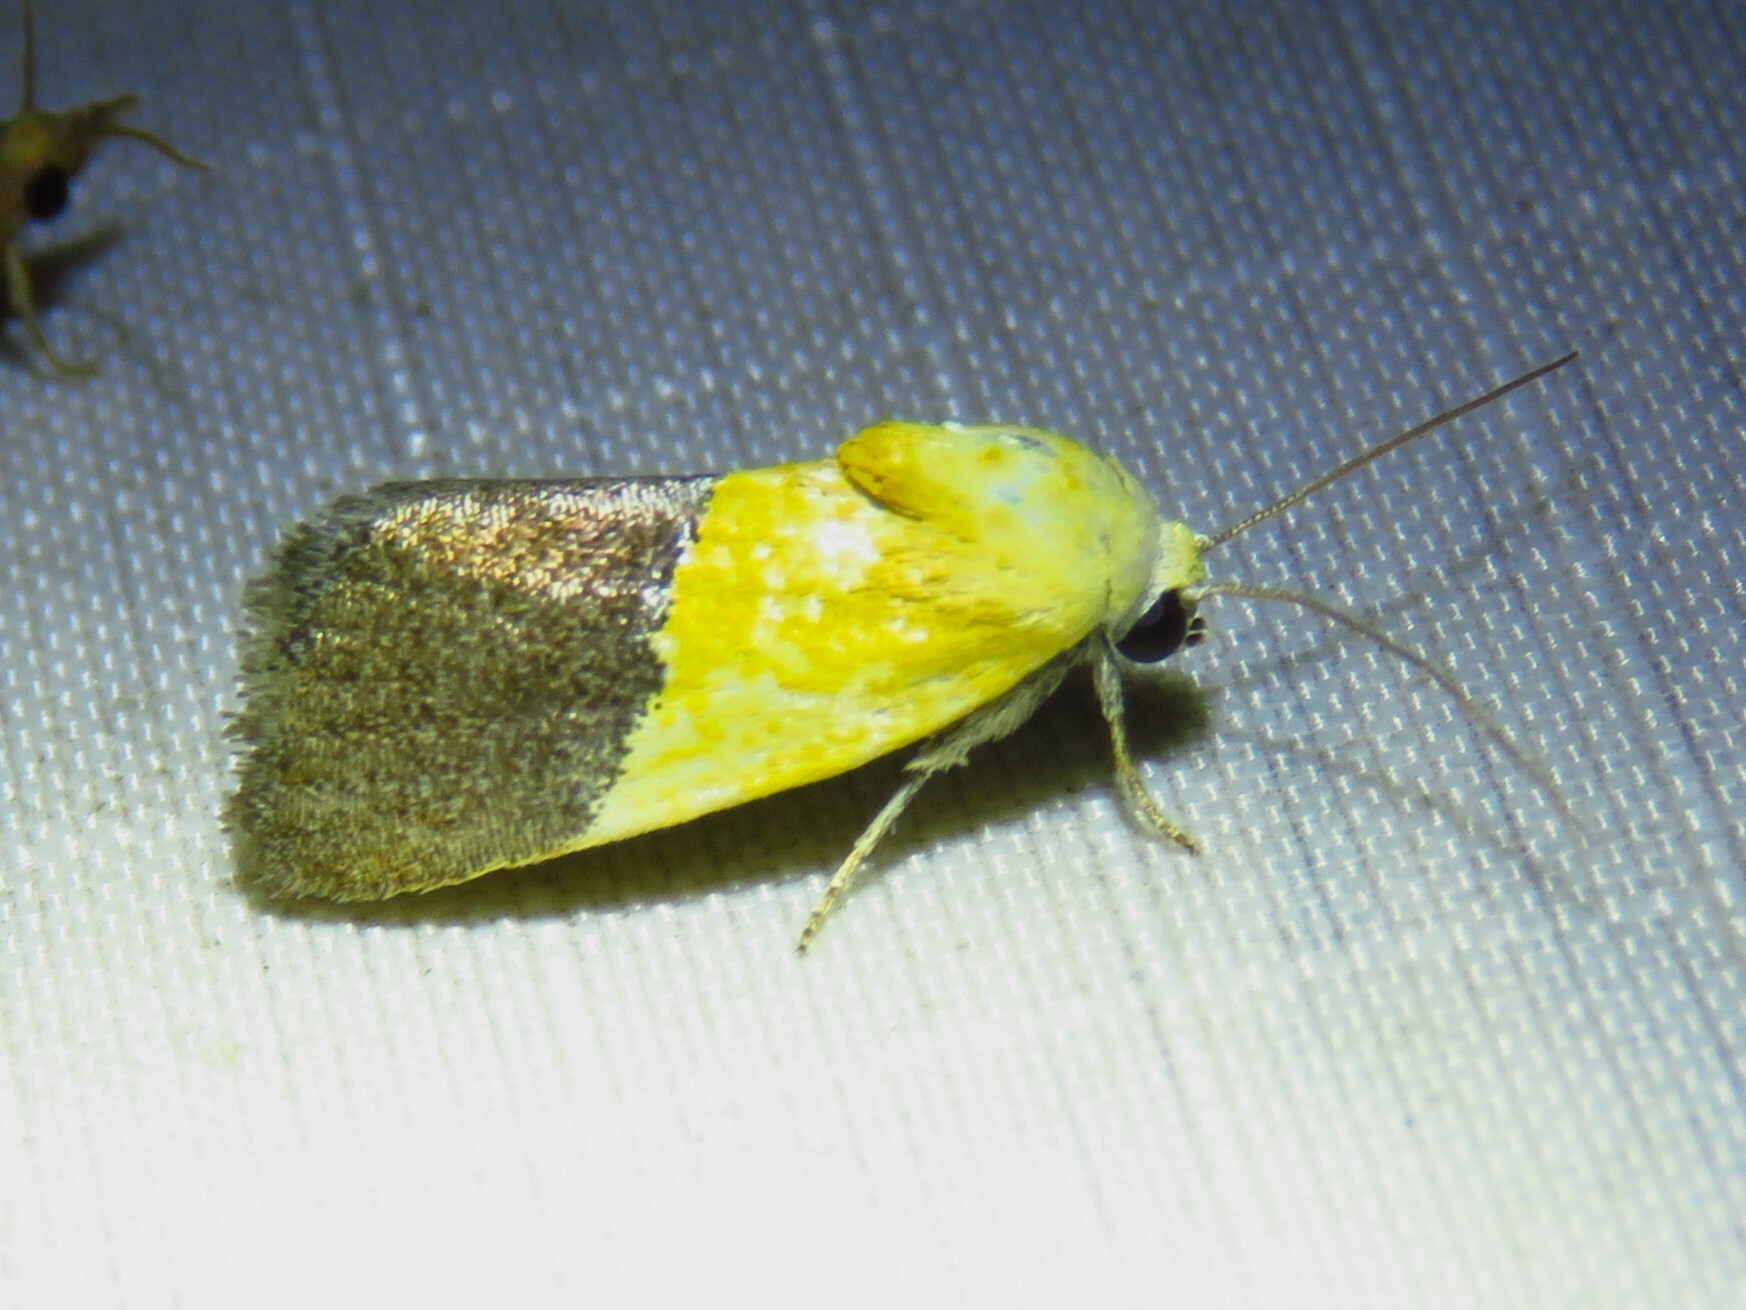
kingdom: Animalia
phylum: Arthropoda
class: Insecta
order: Lepidoptera
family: Noctuidae
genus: Acontia
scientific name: Acontia semiflava
